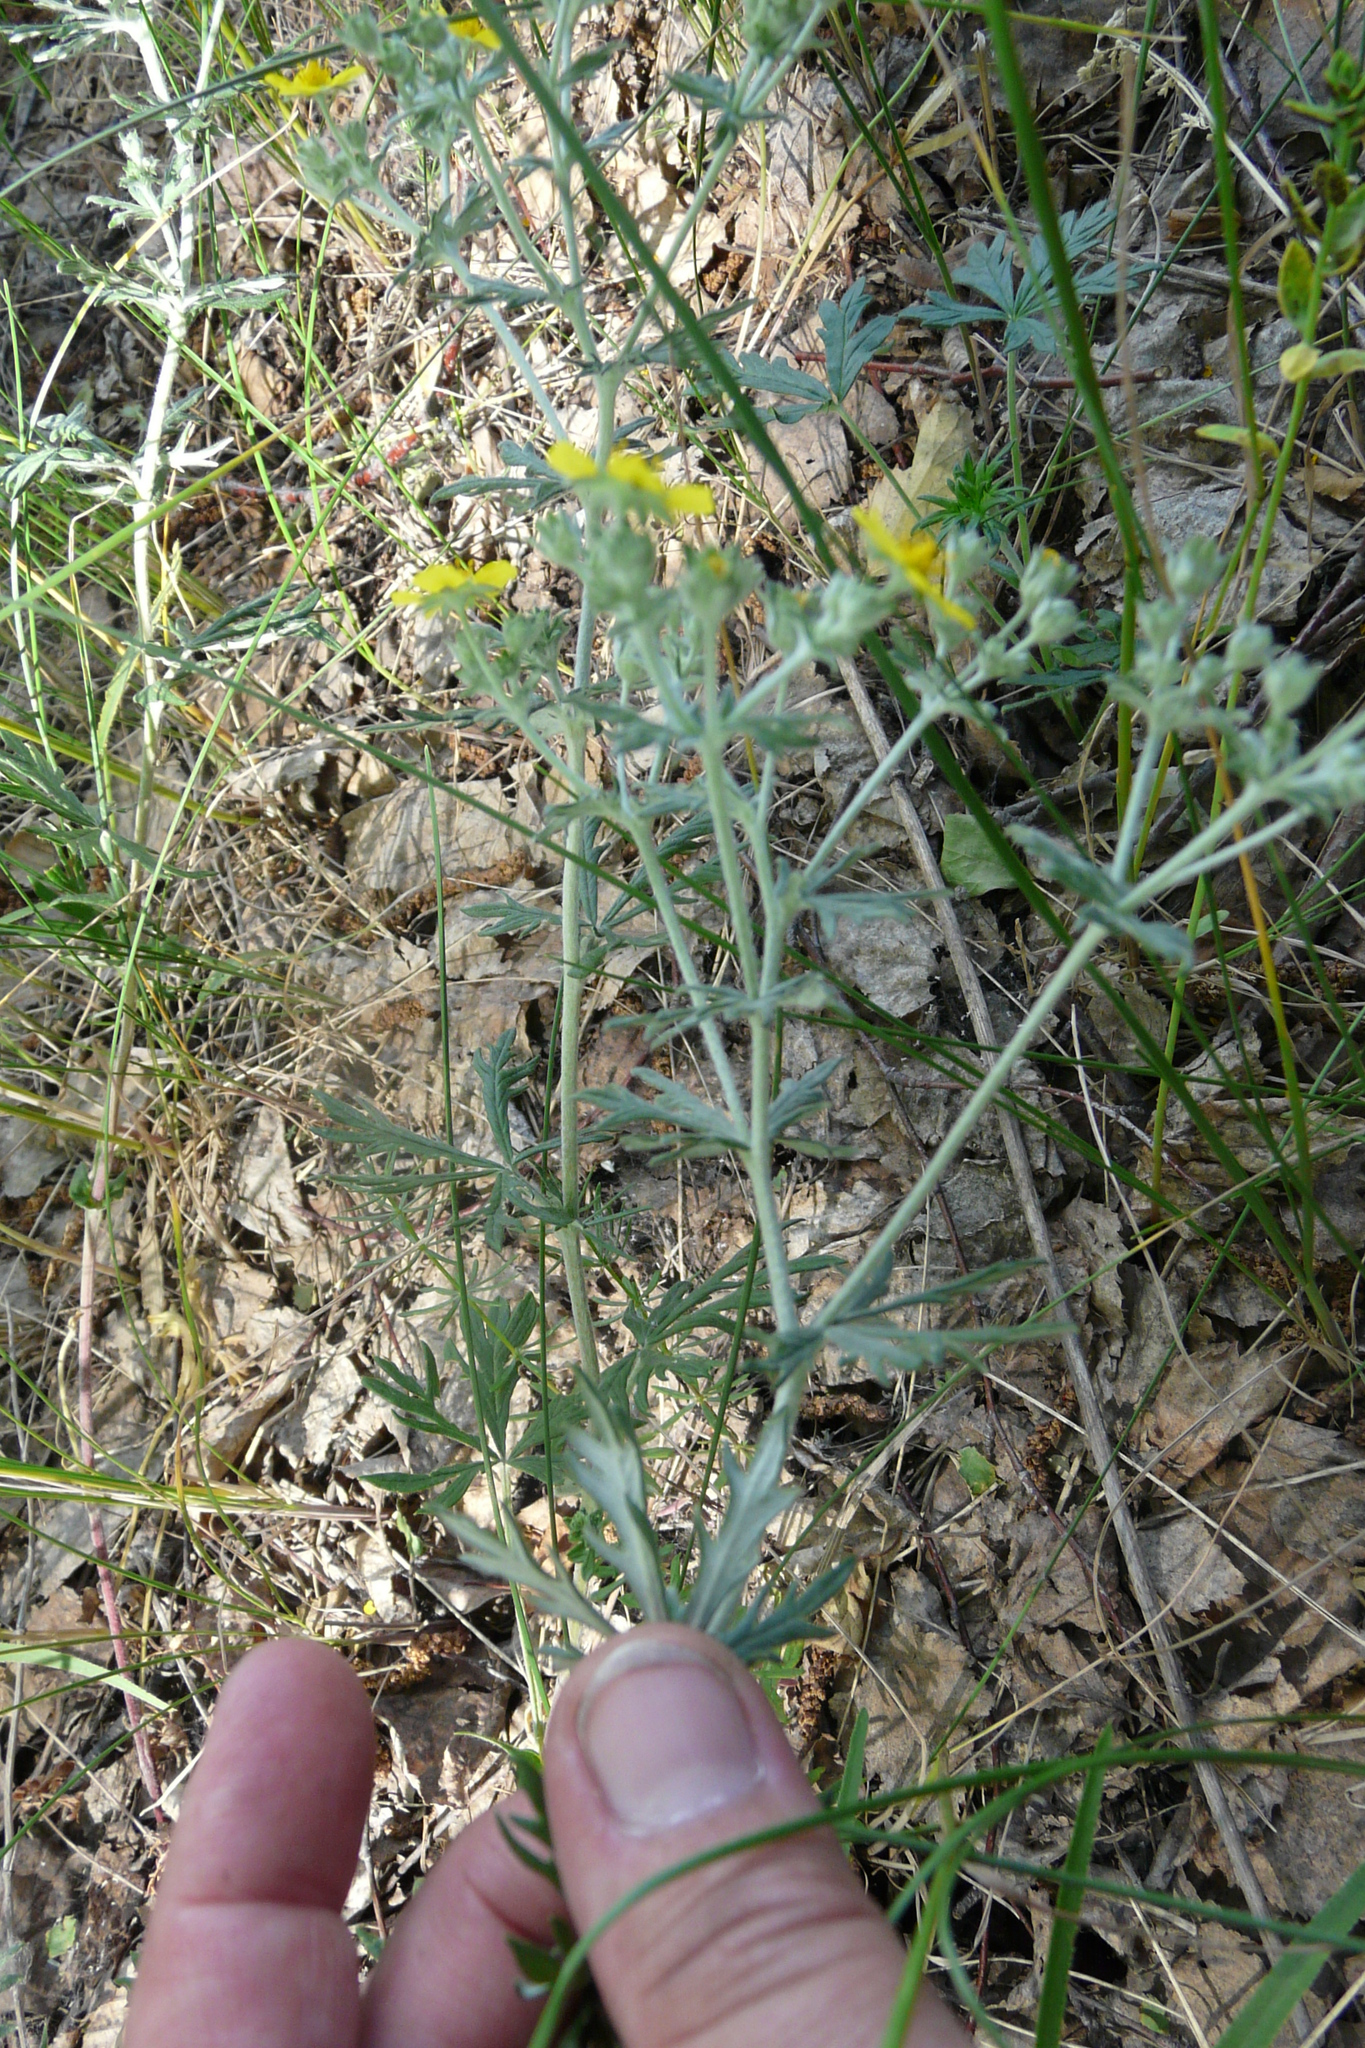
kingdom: Plantae
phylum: Tracheophyta
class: Magnoliopsida
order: Rosales
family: Rosaceae
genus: Potentilla
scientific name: Potentilla argentea
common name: Hoary cinquefoil
